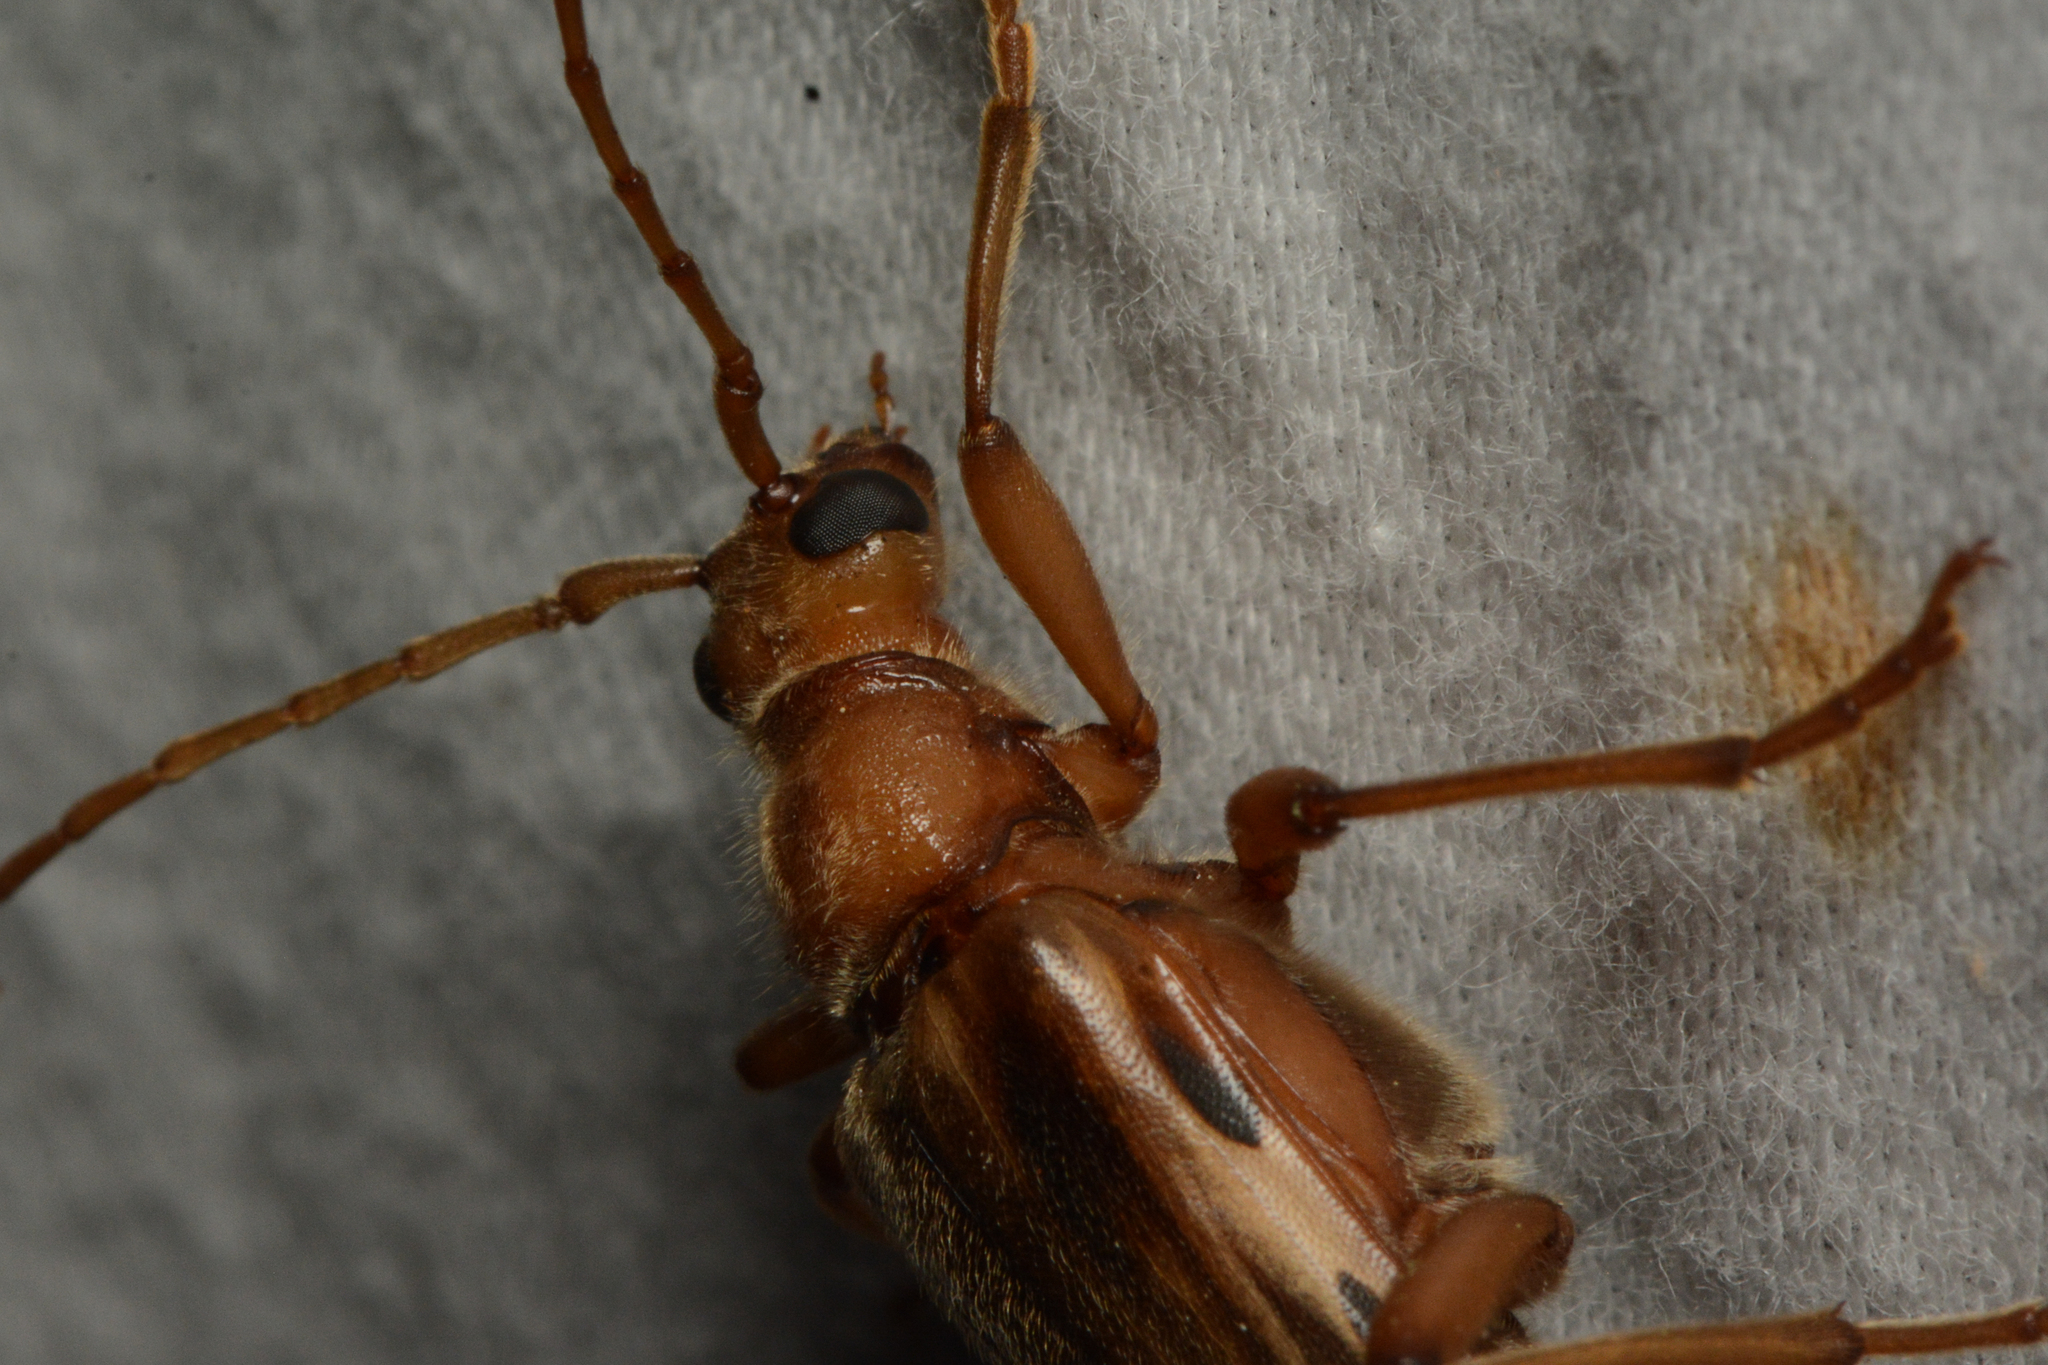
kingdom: Animalia
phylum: Arthropoda
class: Insecta
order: Coleoptera
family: Cerambycidae
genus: Ortholeptura
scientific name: Ortholeptura valida
